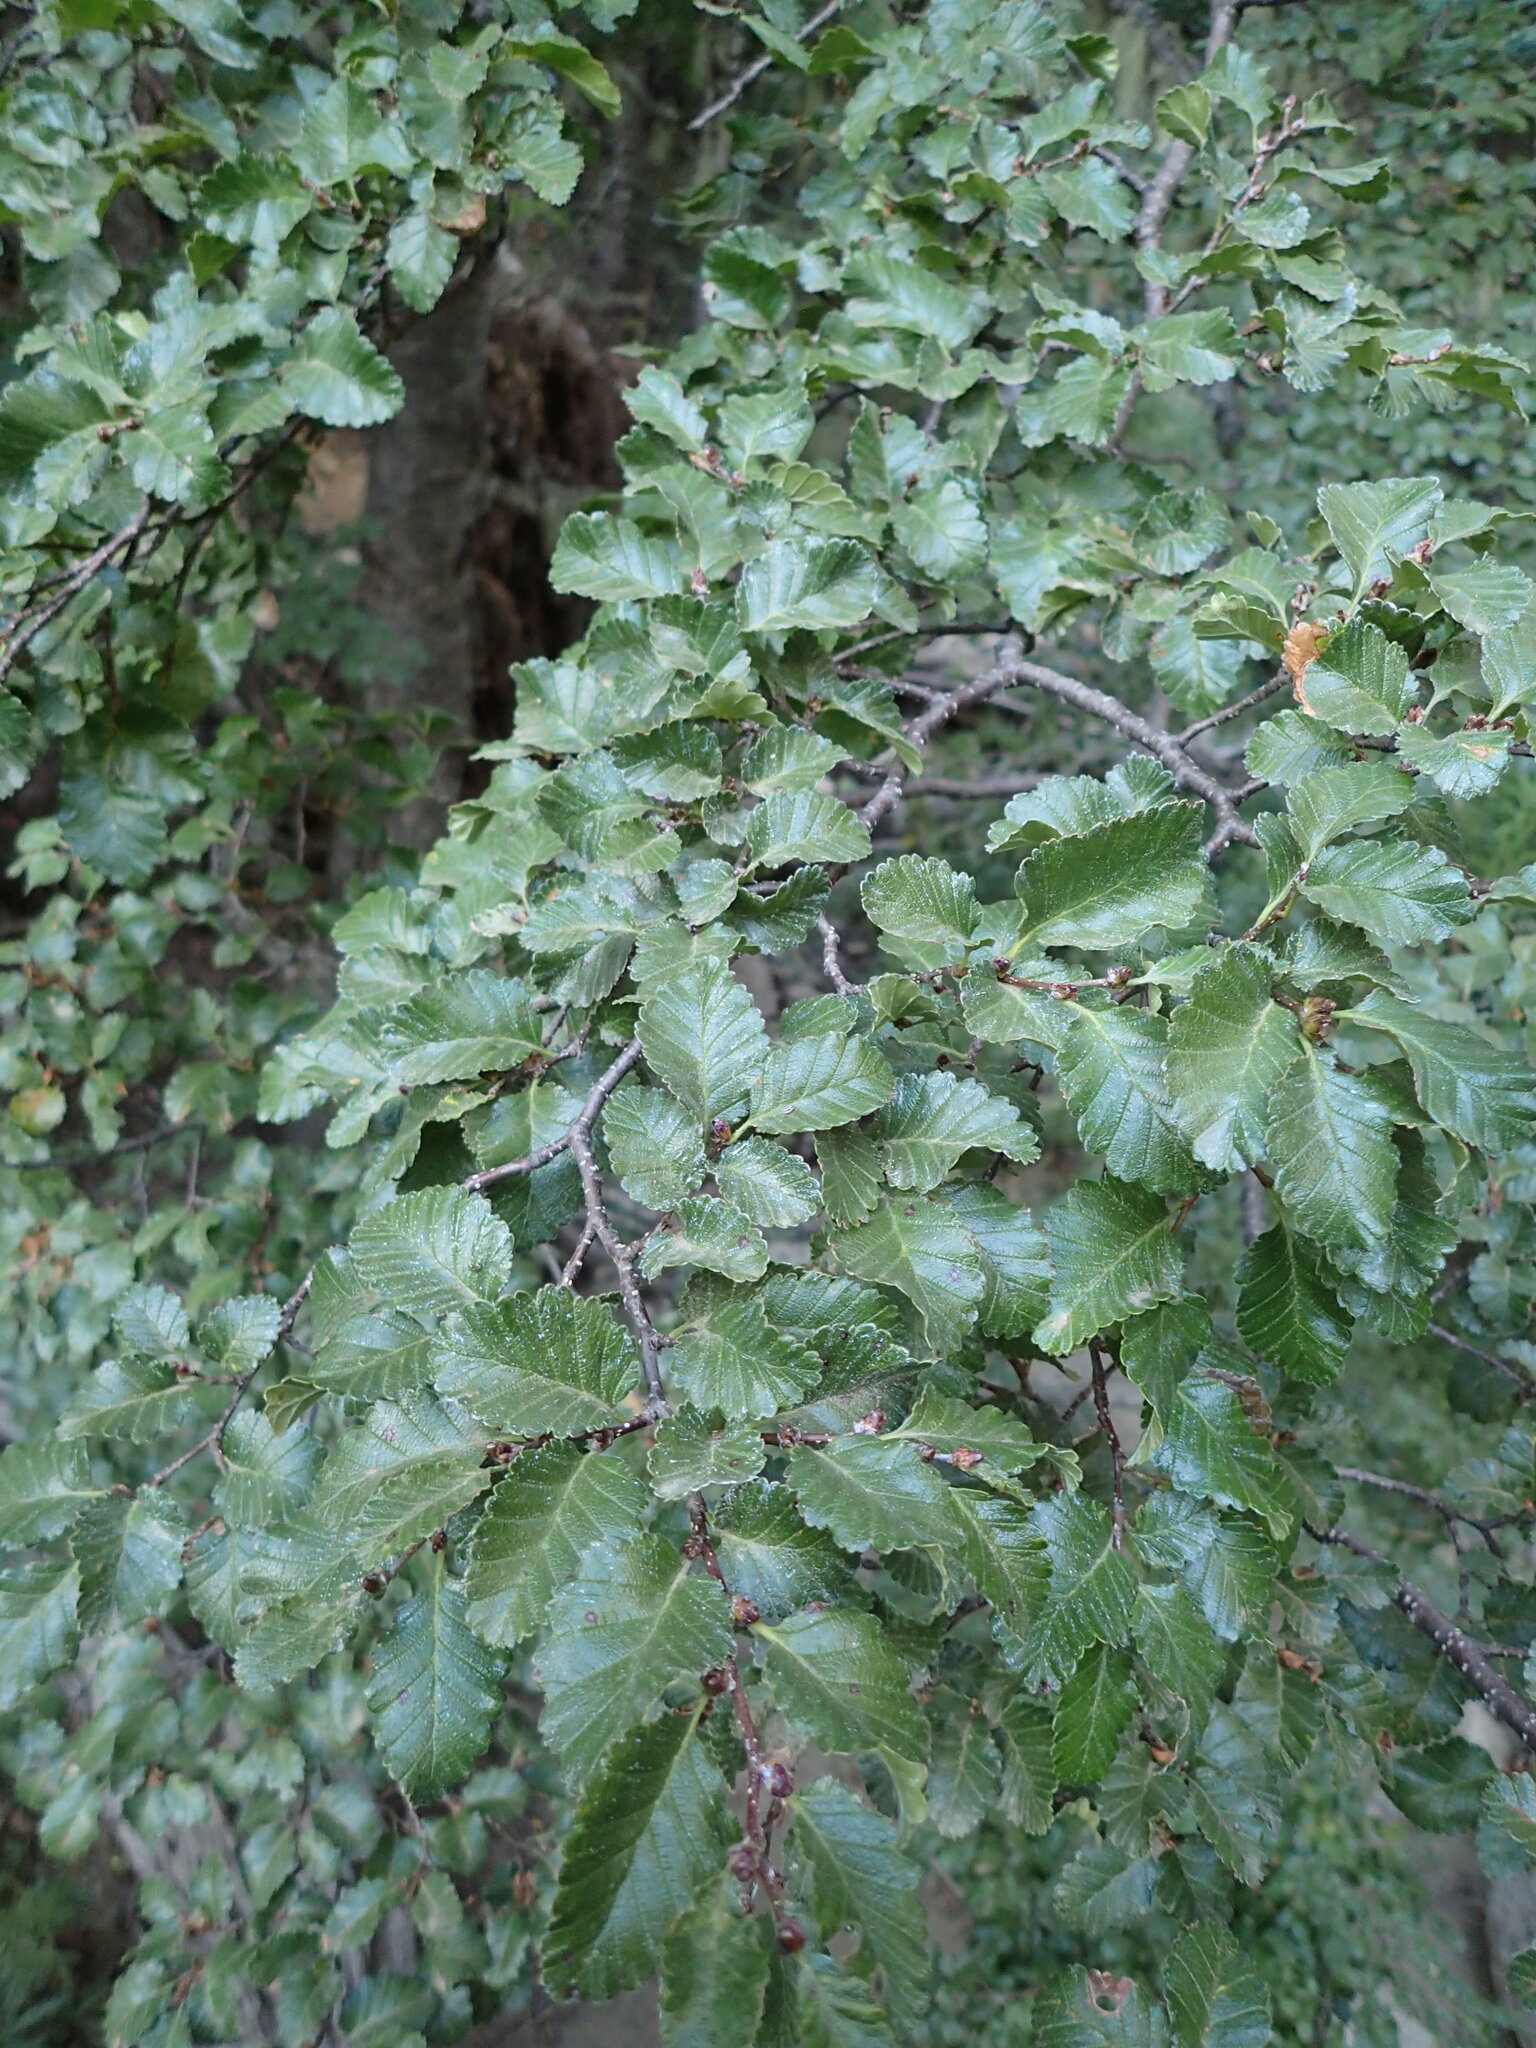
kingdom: Plantae
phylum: Tracheophyta
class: Magnoliopsida
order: Fagales
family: Nothofagaceae
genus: Nothofagus
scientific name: Nothofagus pumilio
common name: Lenga beech
